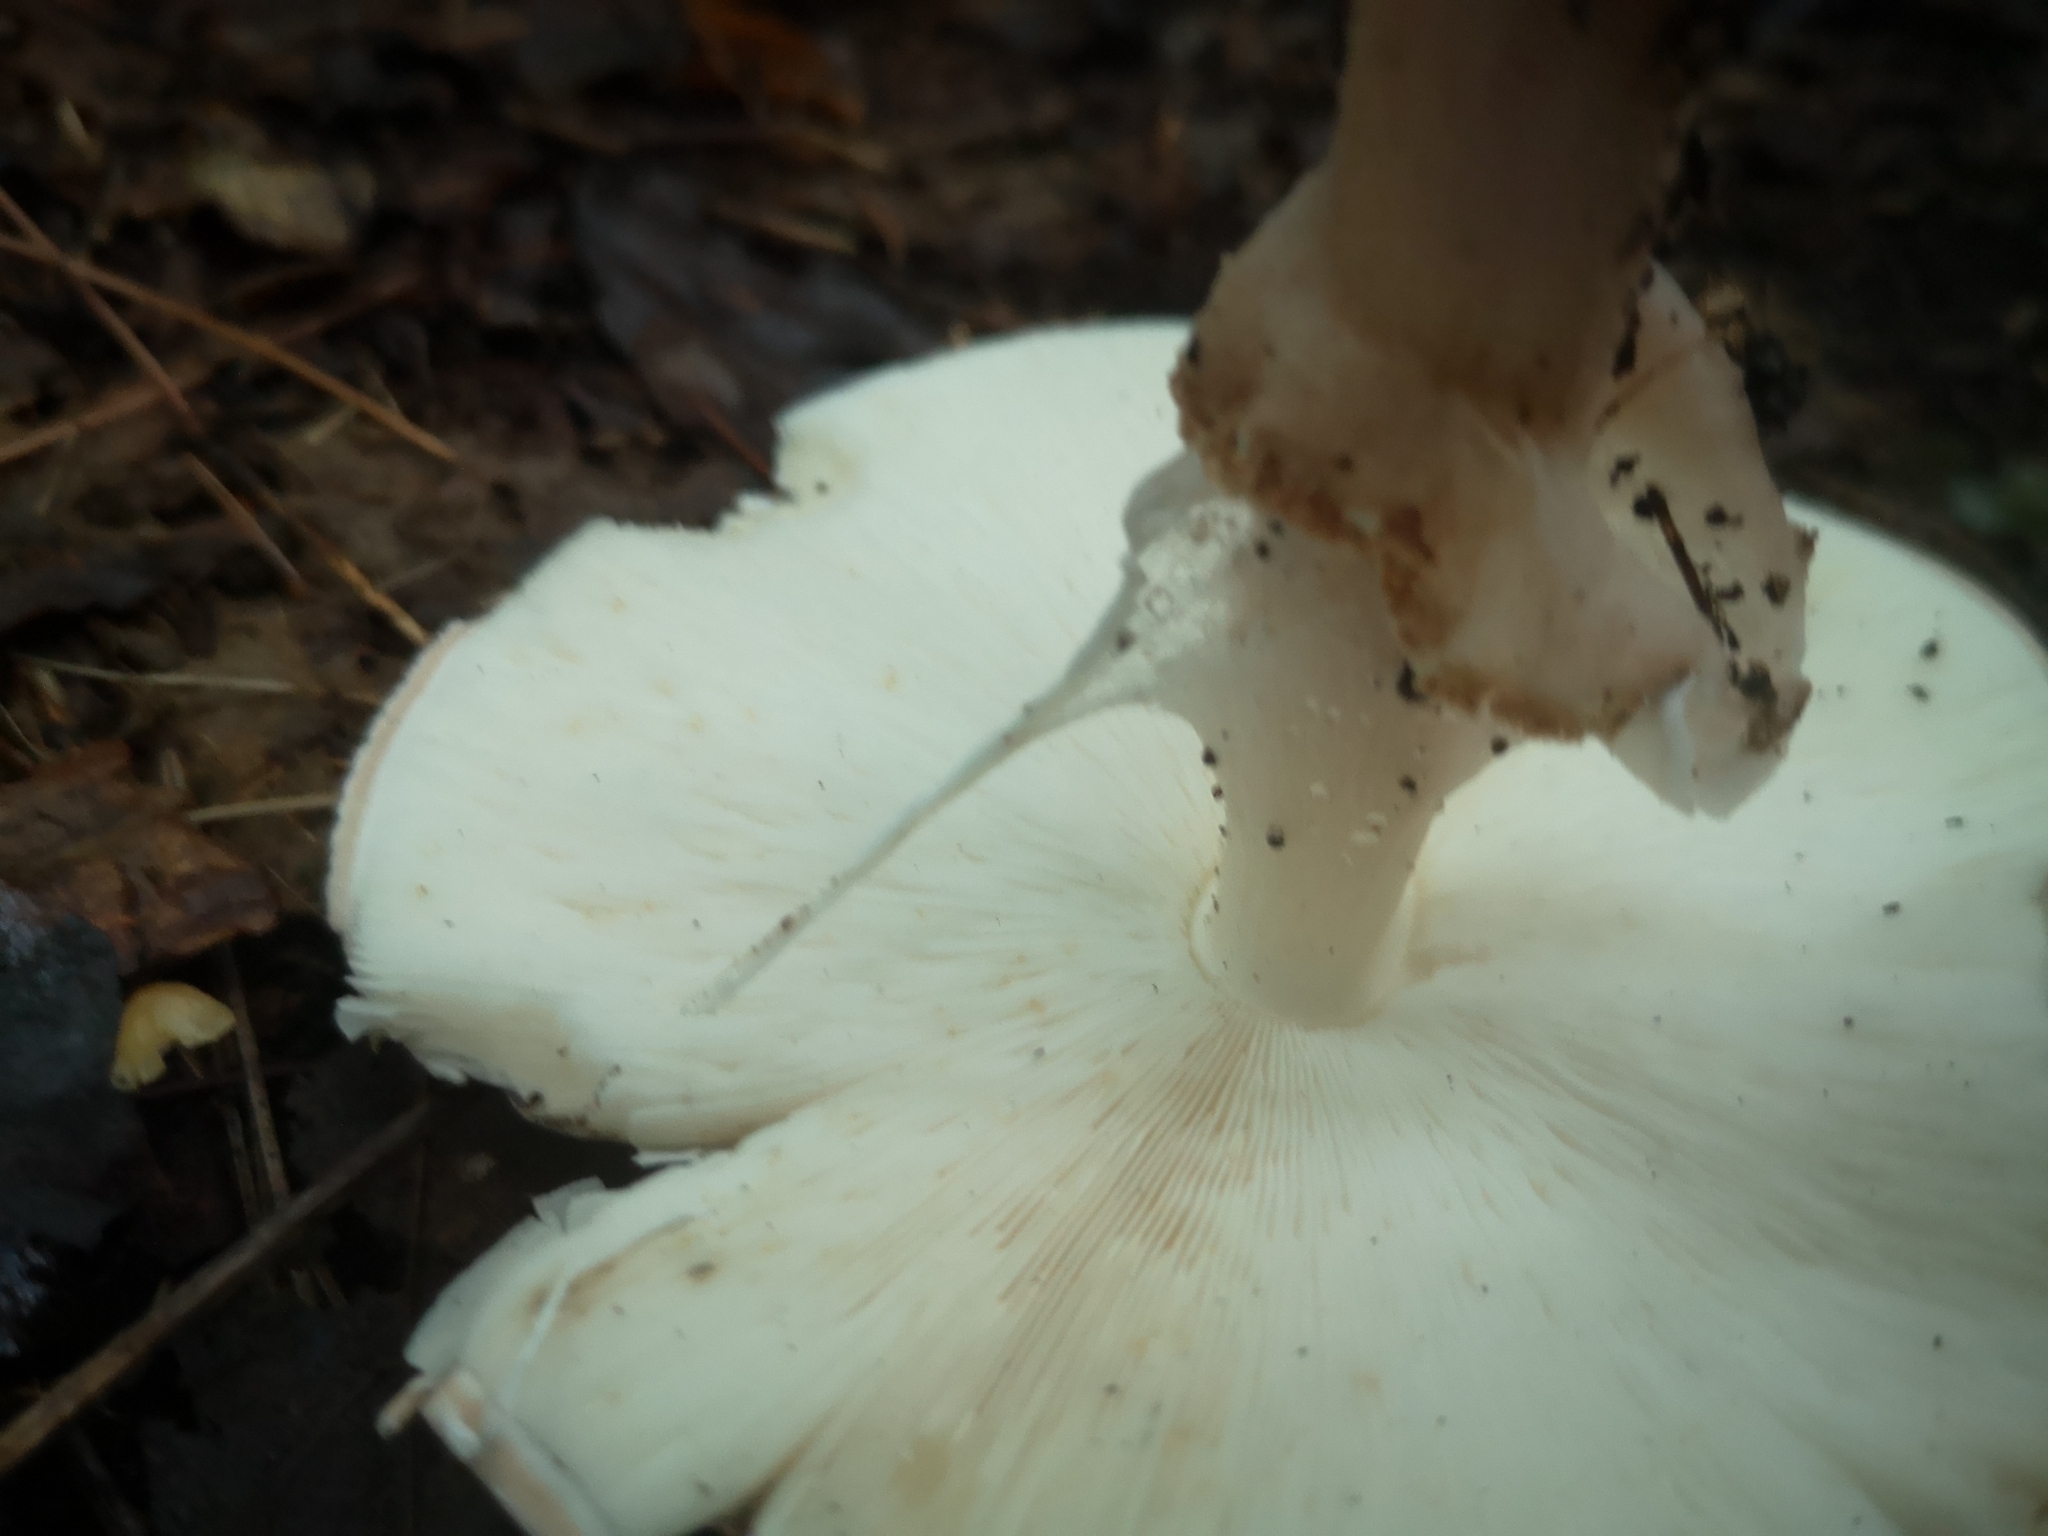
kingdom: Fungi
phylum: Basidiomycota
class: Agaricomycetes
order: Agaricales
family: Agaricaceae
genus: Echinoderma
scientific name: Echinoderma asperum
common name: Freckled dapperling
